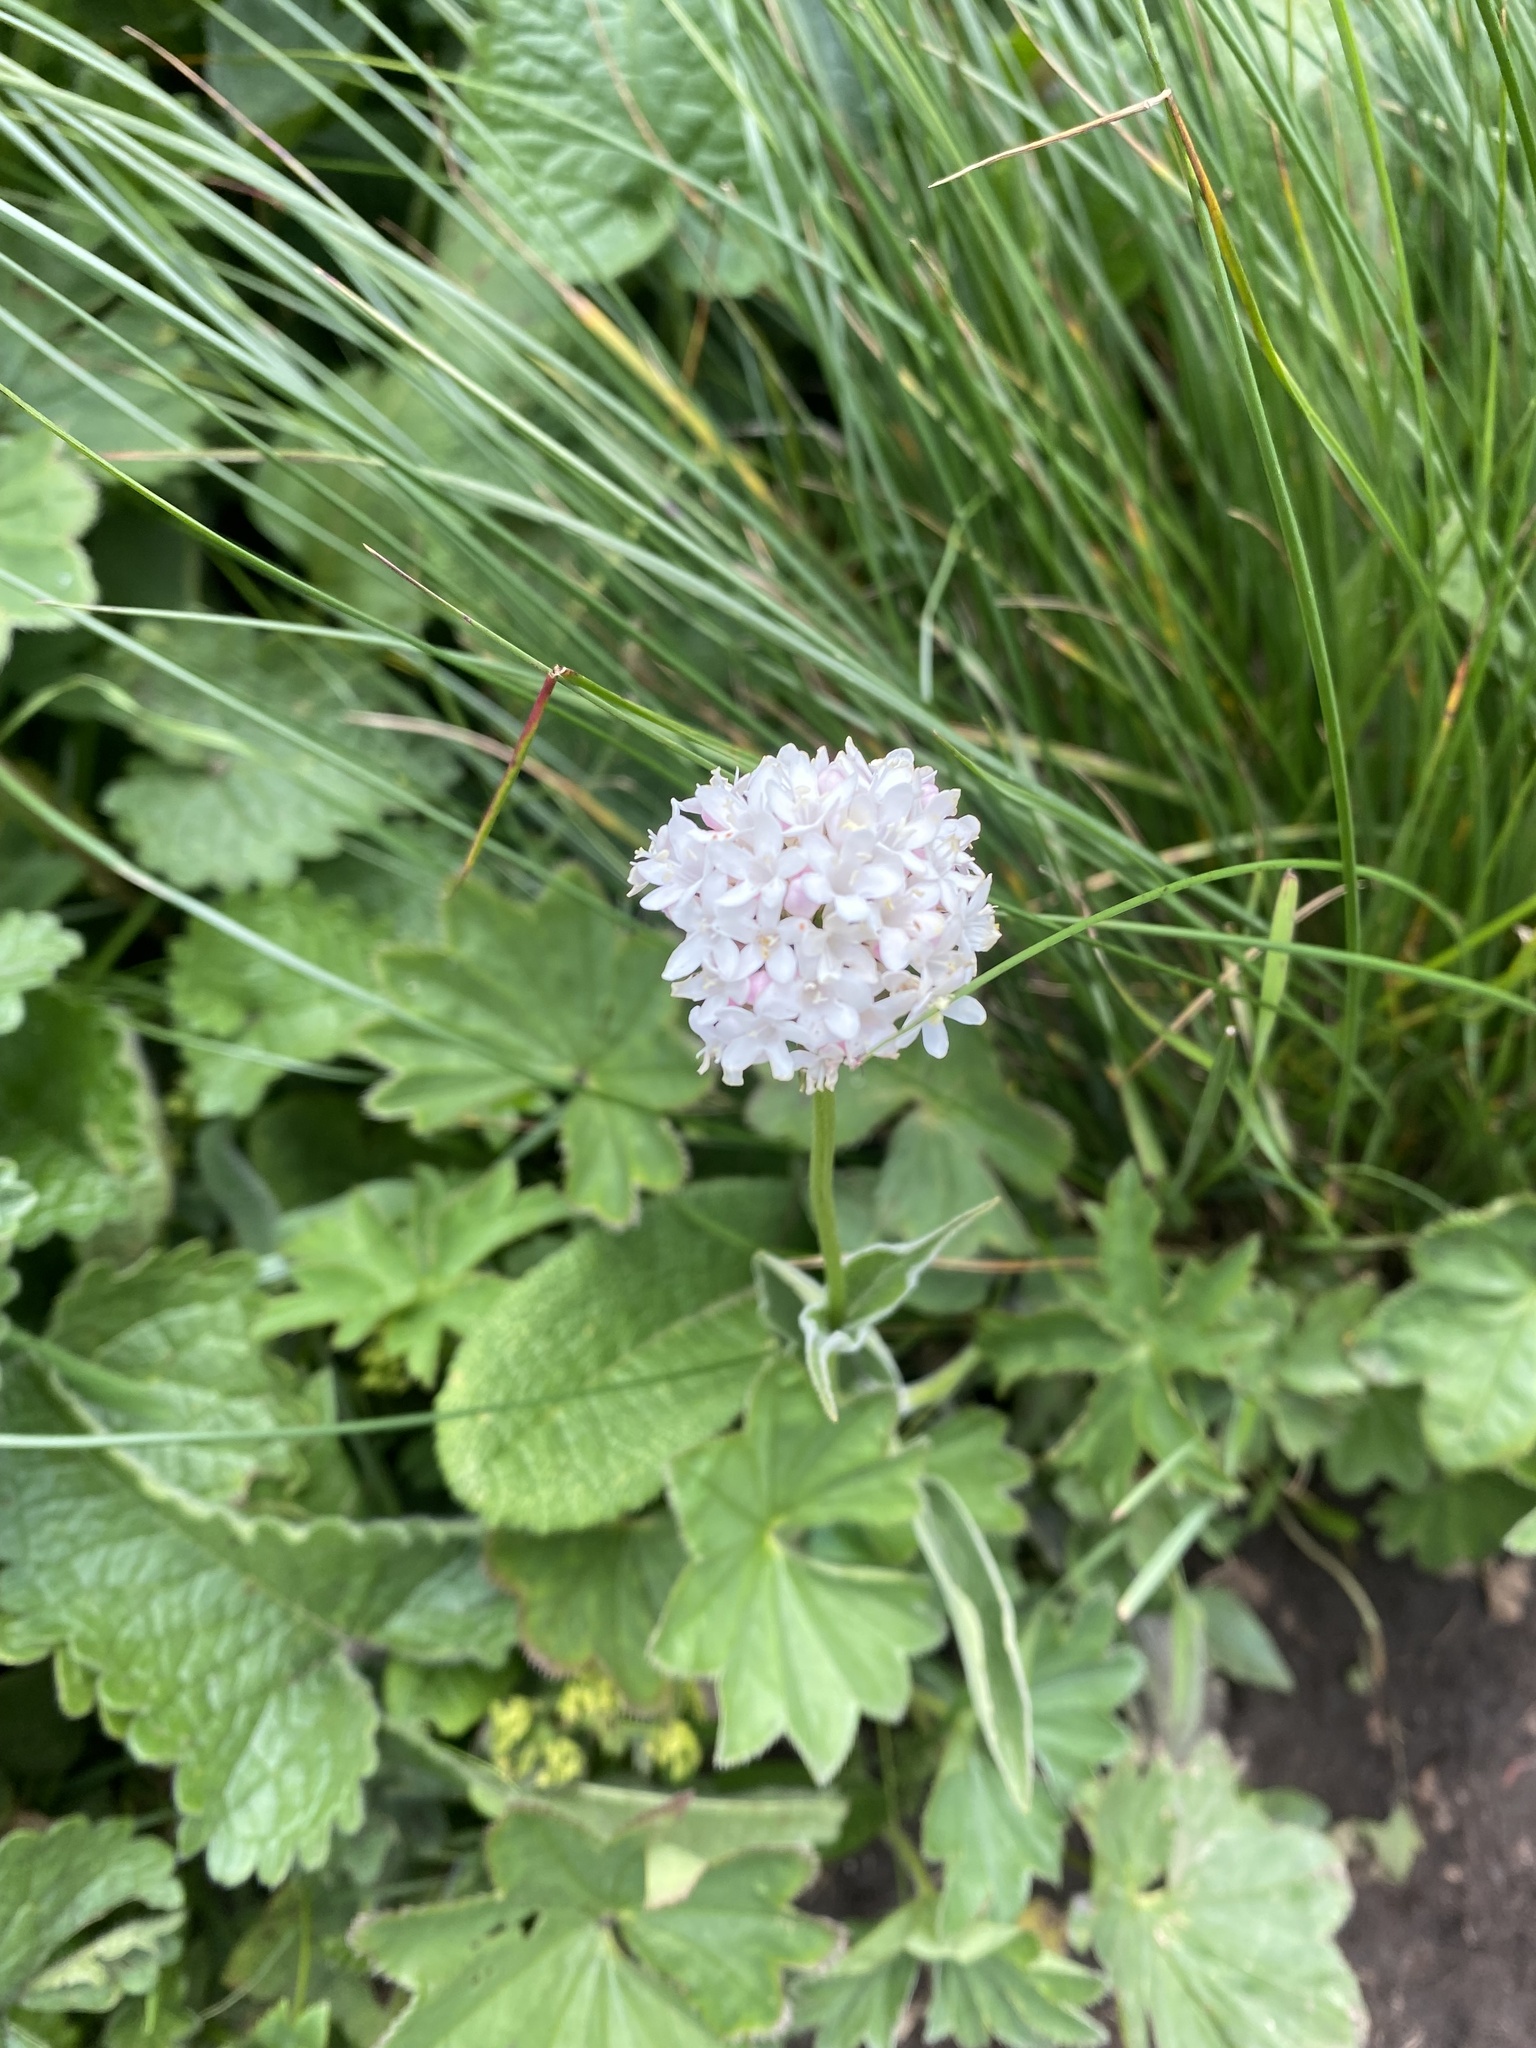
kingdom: Plantae
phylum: Tracheophyta
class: Magnoliopsida
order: Dipsacales
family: Caprifoliaceae
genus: Valeriana
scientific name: Valeriana alpestris
